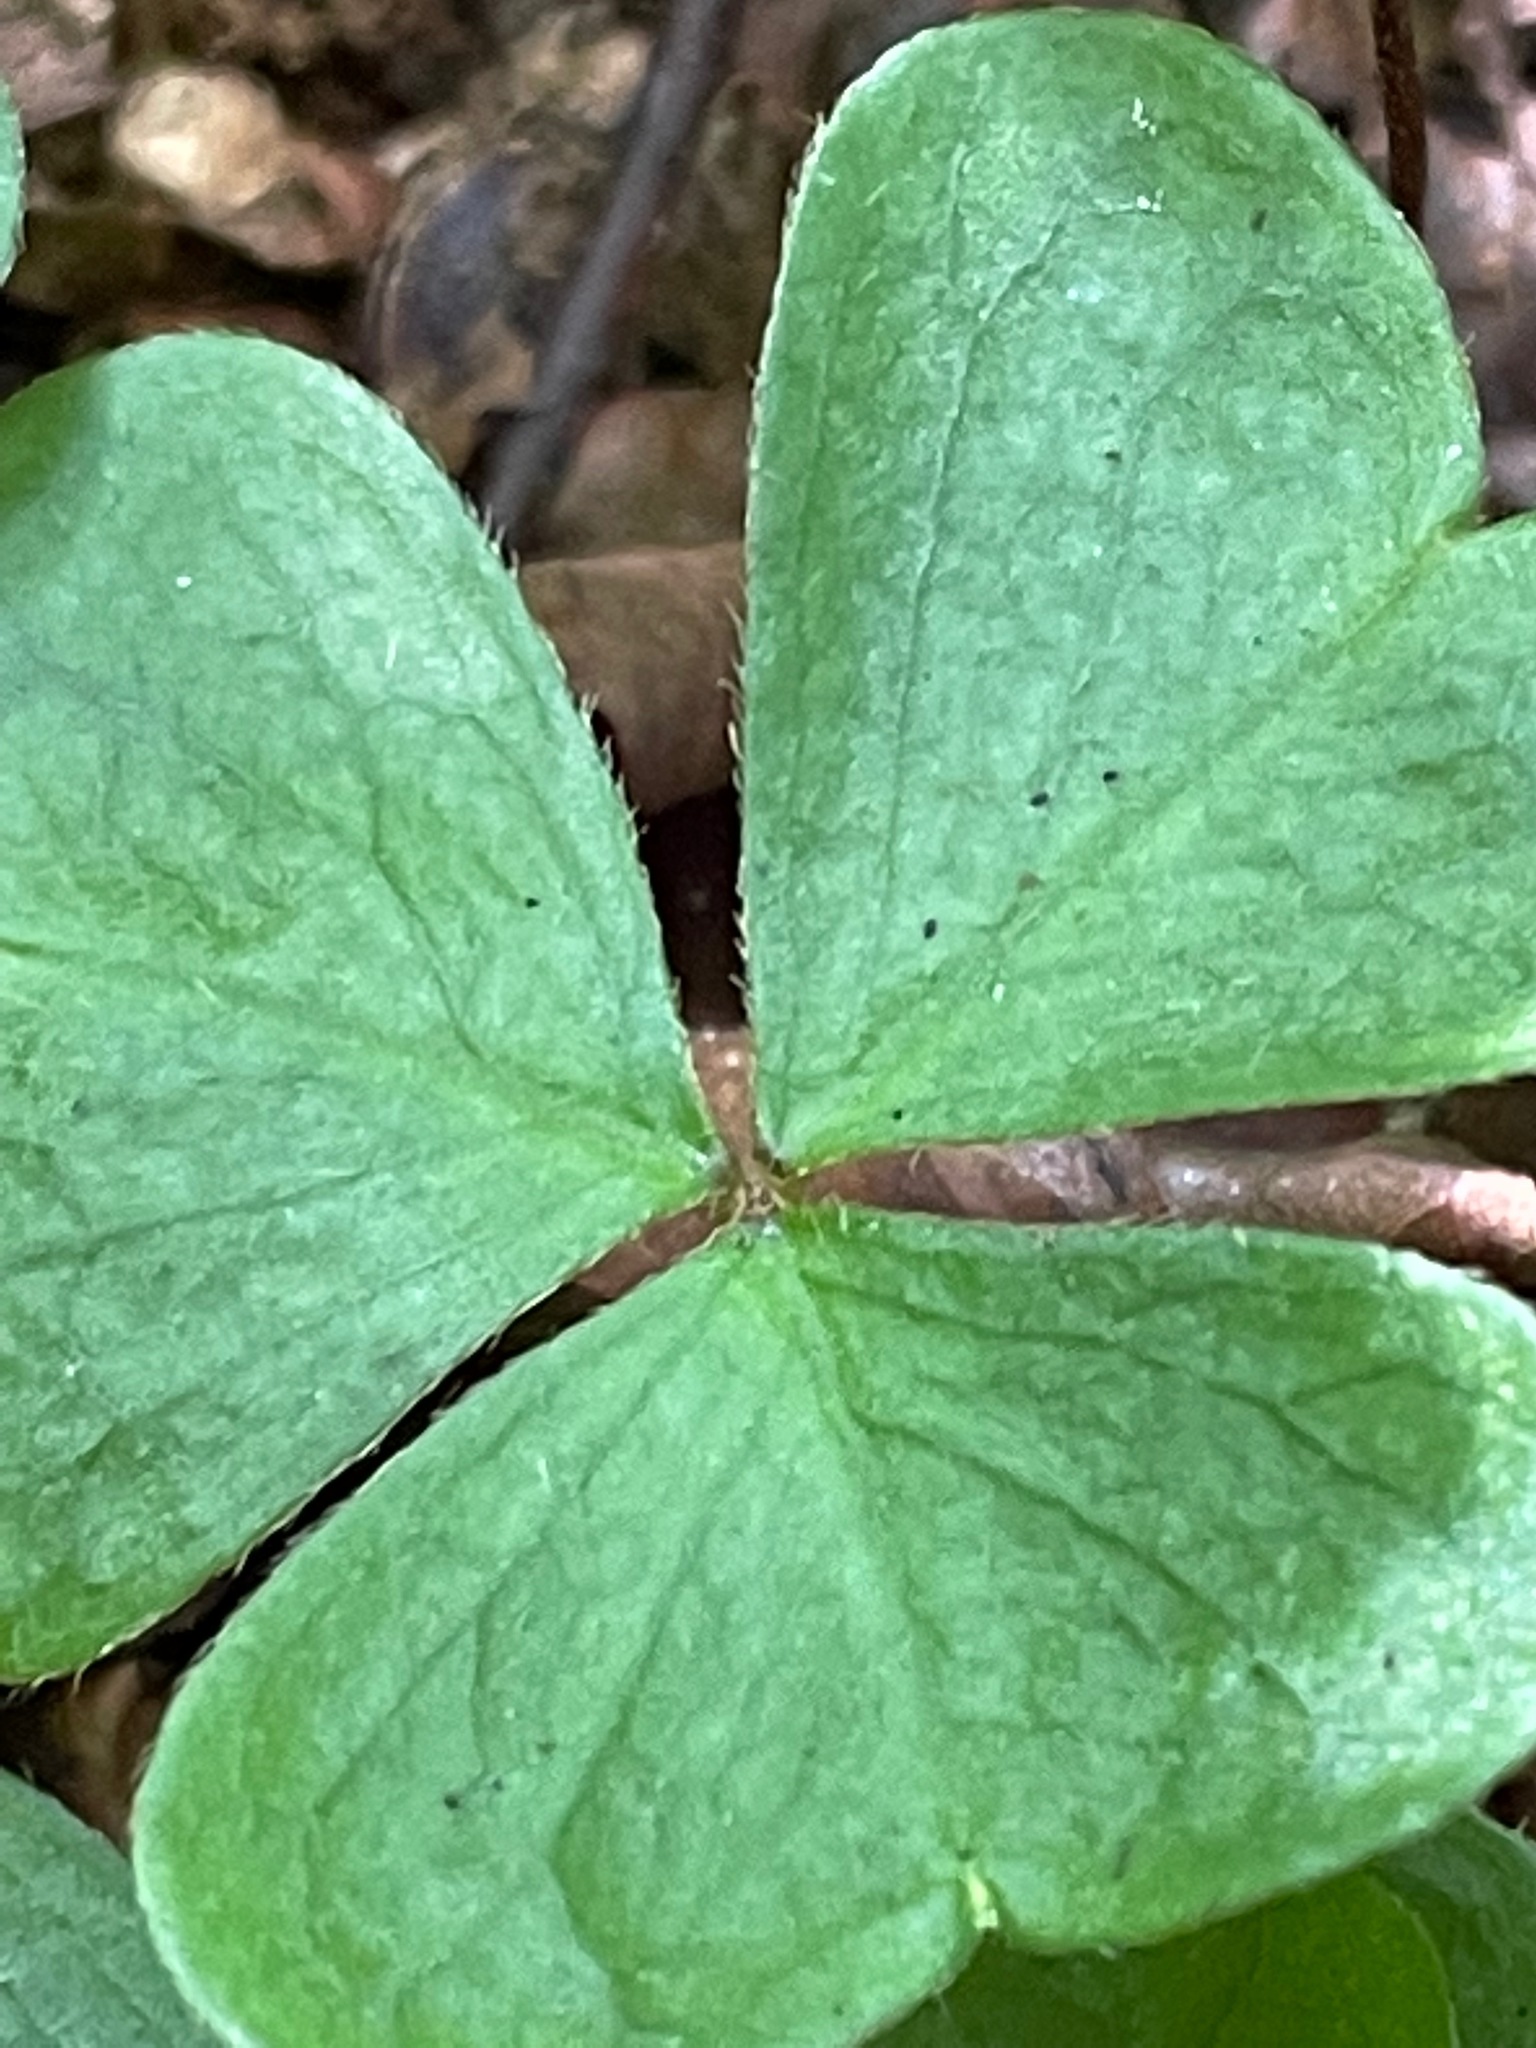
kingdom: Plantae
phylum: Tracheophyta
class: Magnoliopsida
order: Oxalidales
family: Oxalidaceae
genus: Oxalis
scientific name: Oxalis montana
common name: American wood-sorrel
